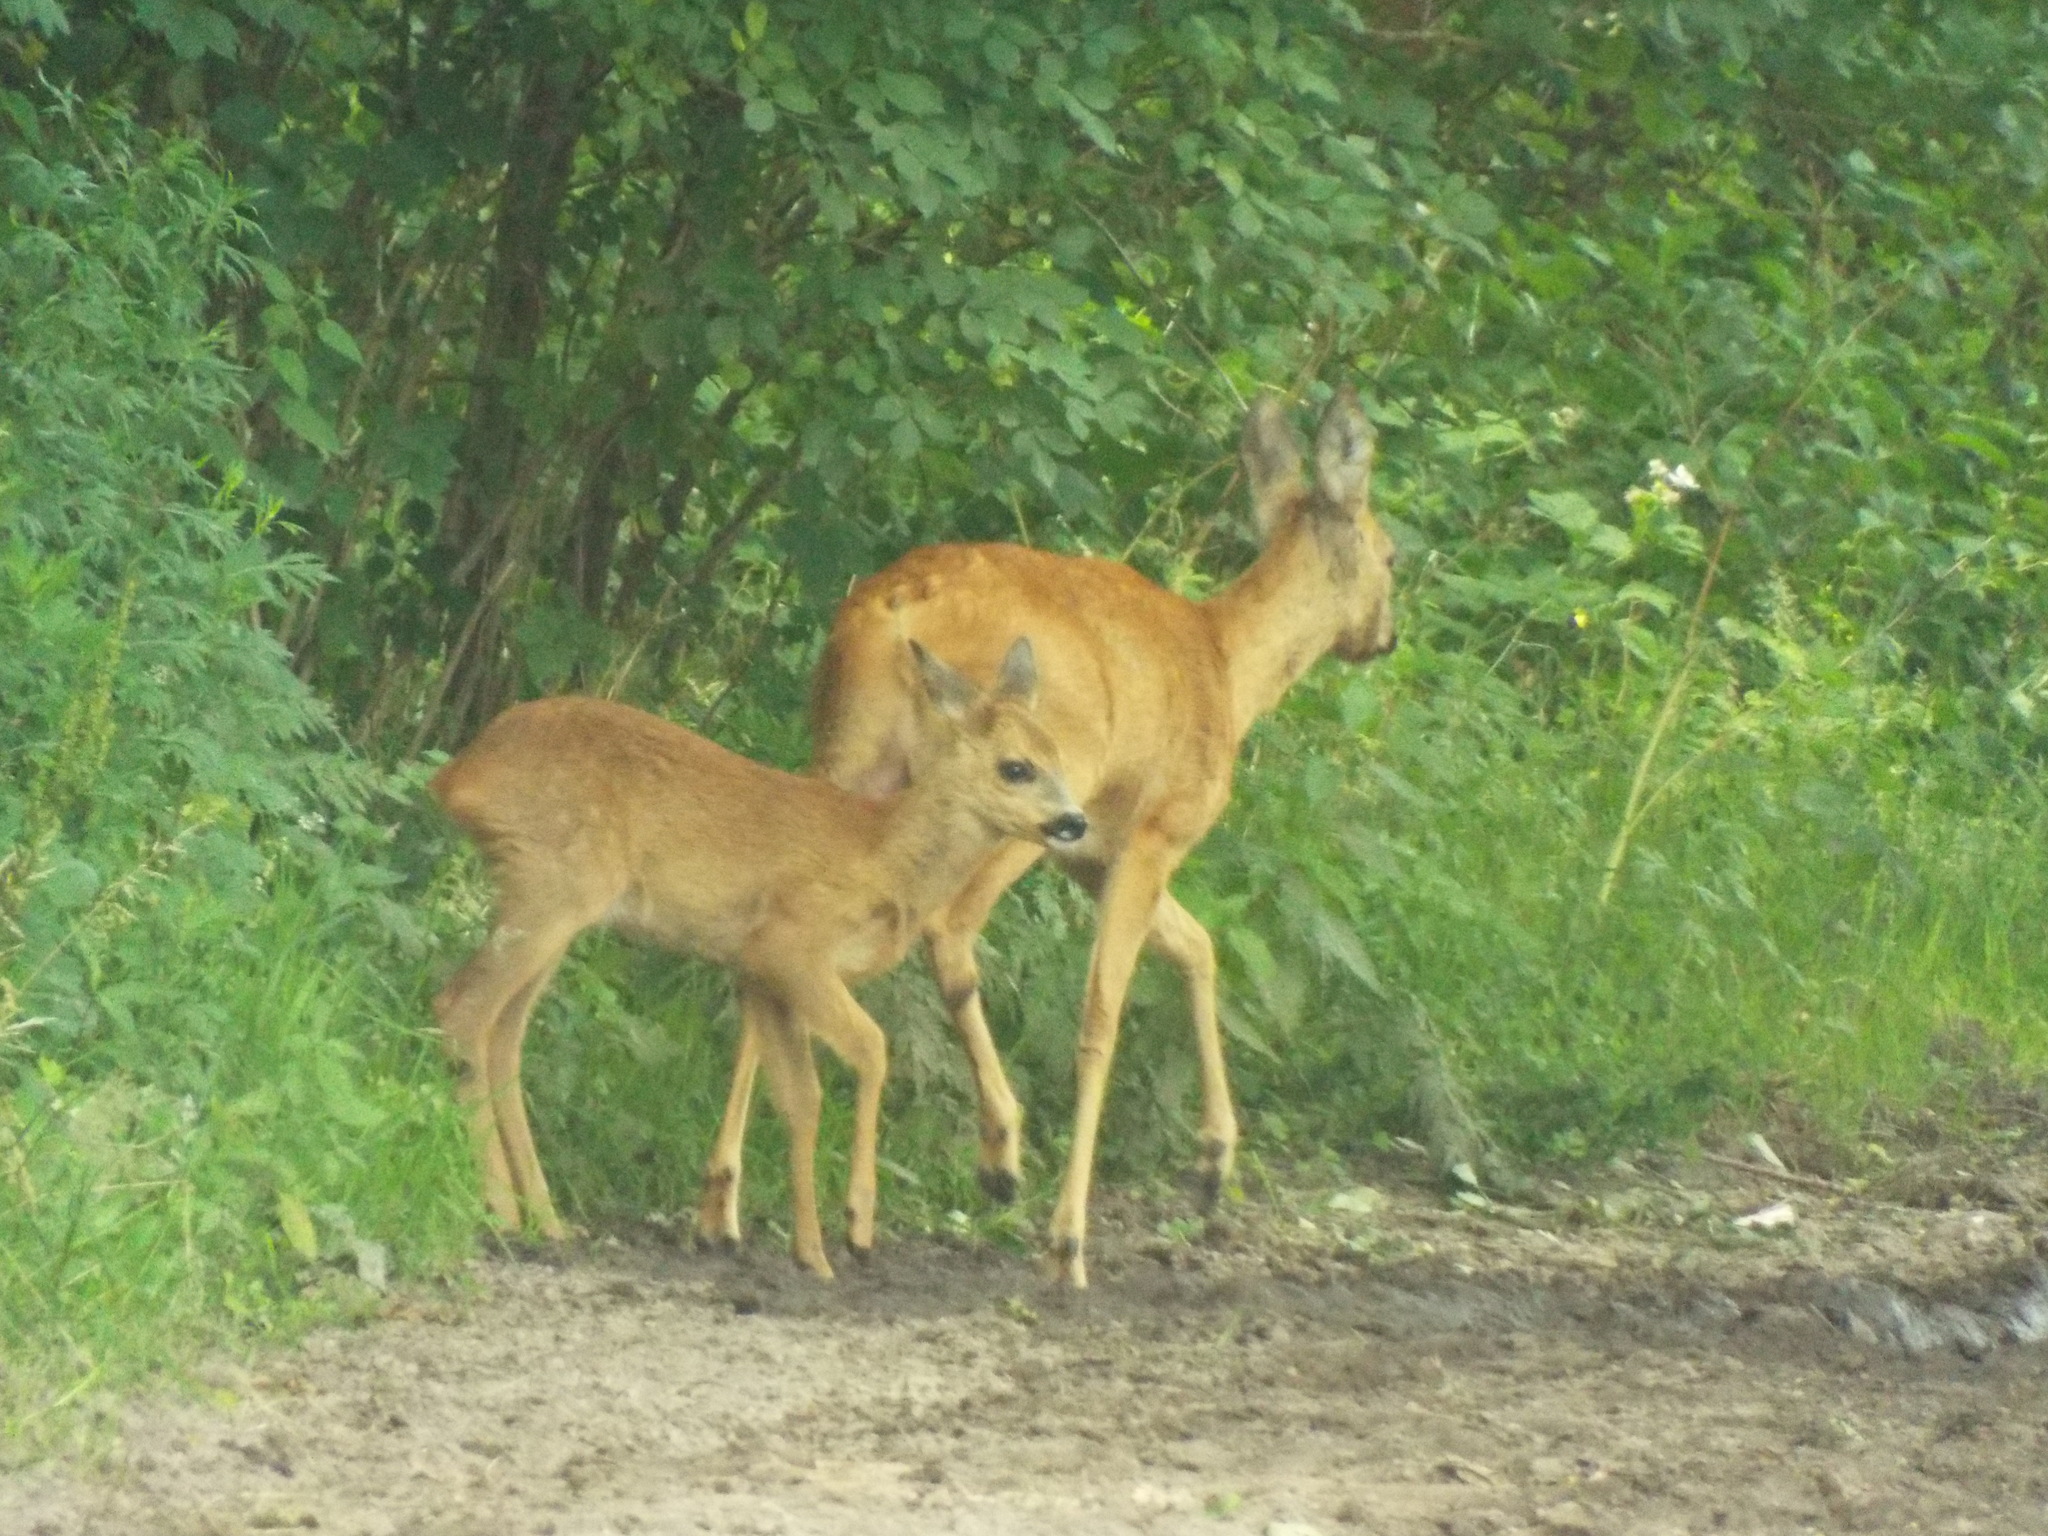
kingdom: Animalia
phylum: Chordata
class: Mammalia
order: Artiodactyla
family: Cervidae
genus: Capreolus
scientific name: Capreolus capreolus
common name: Western roe deer
